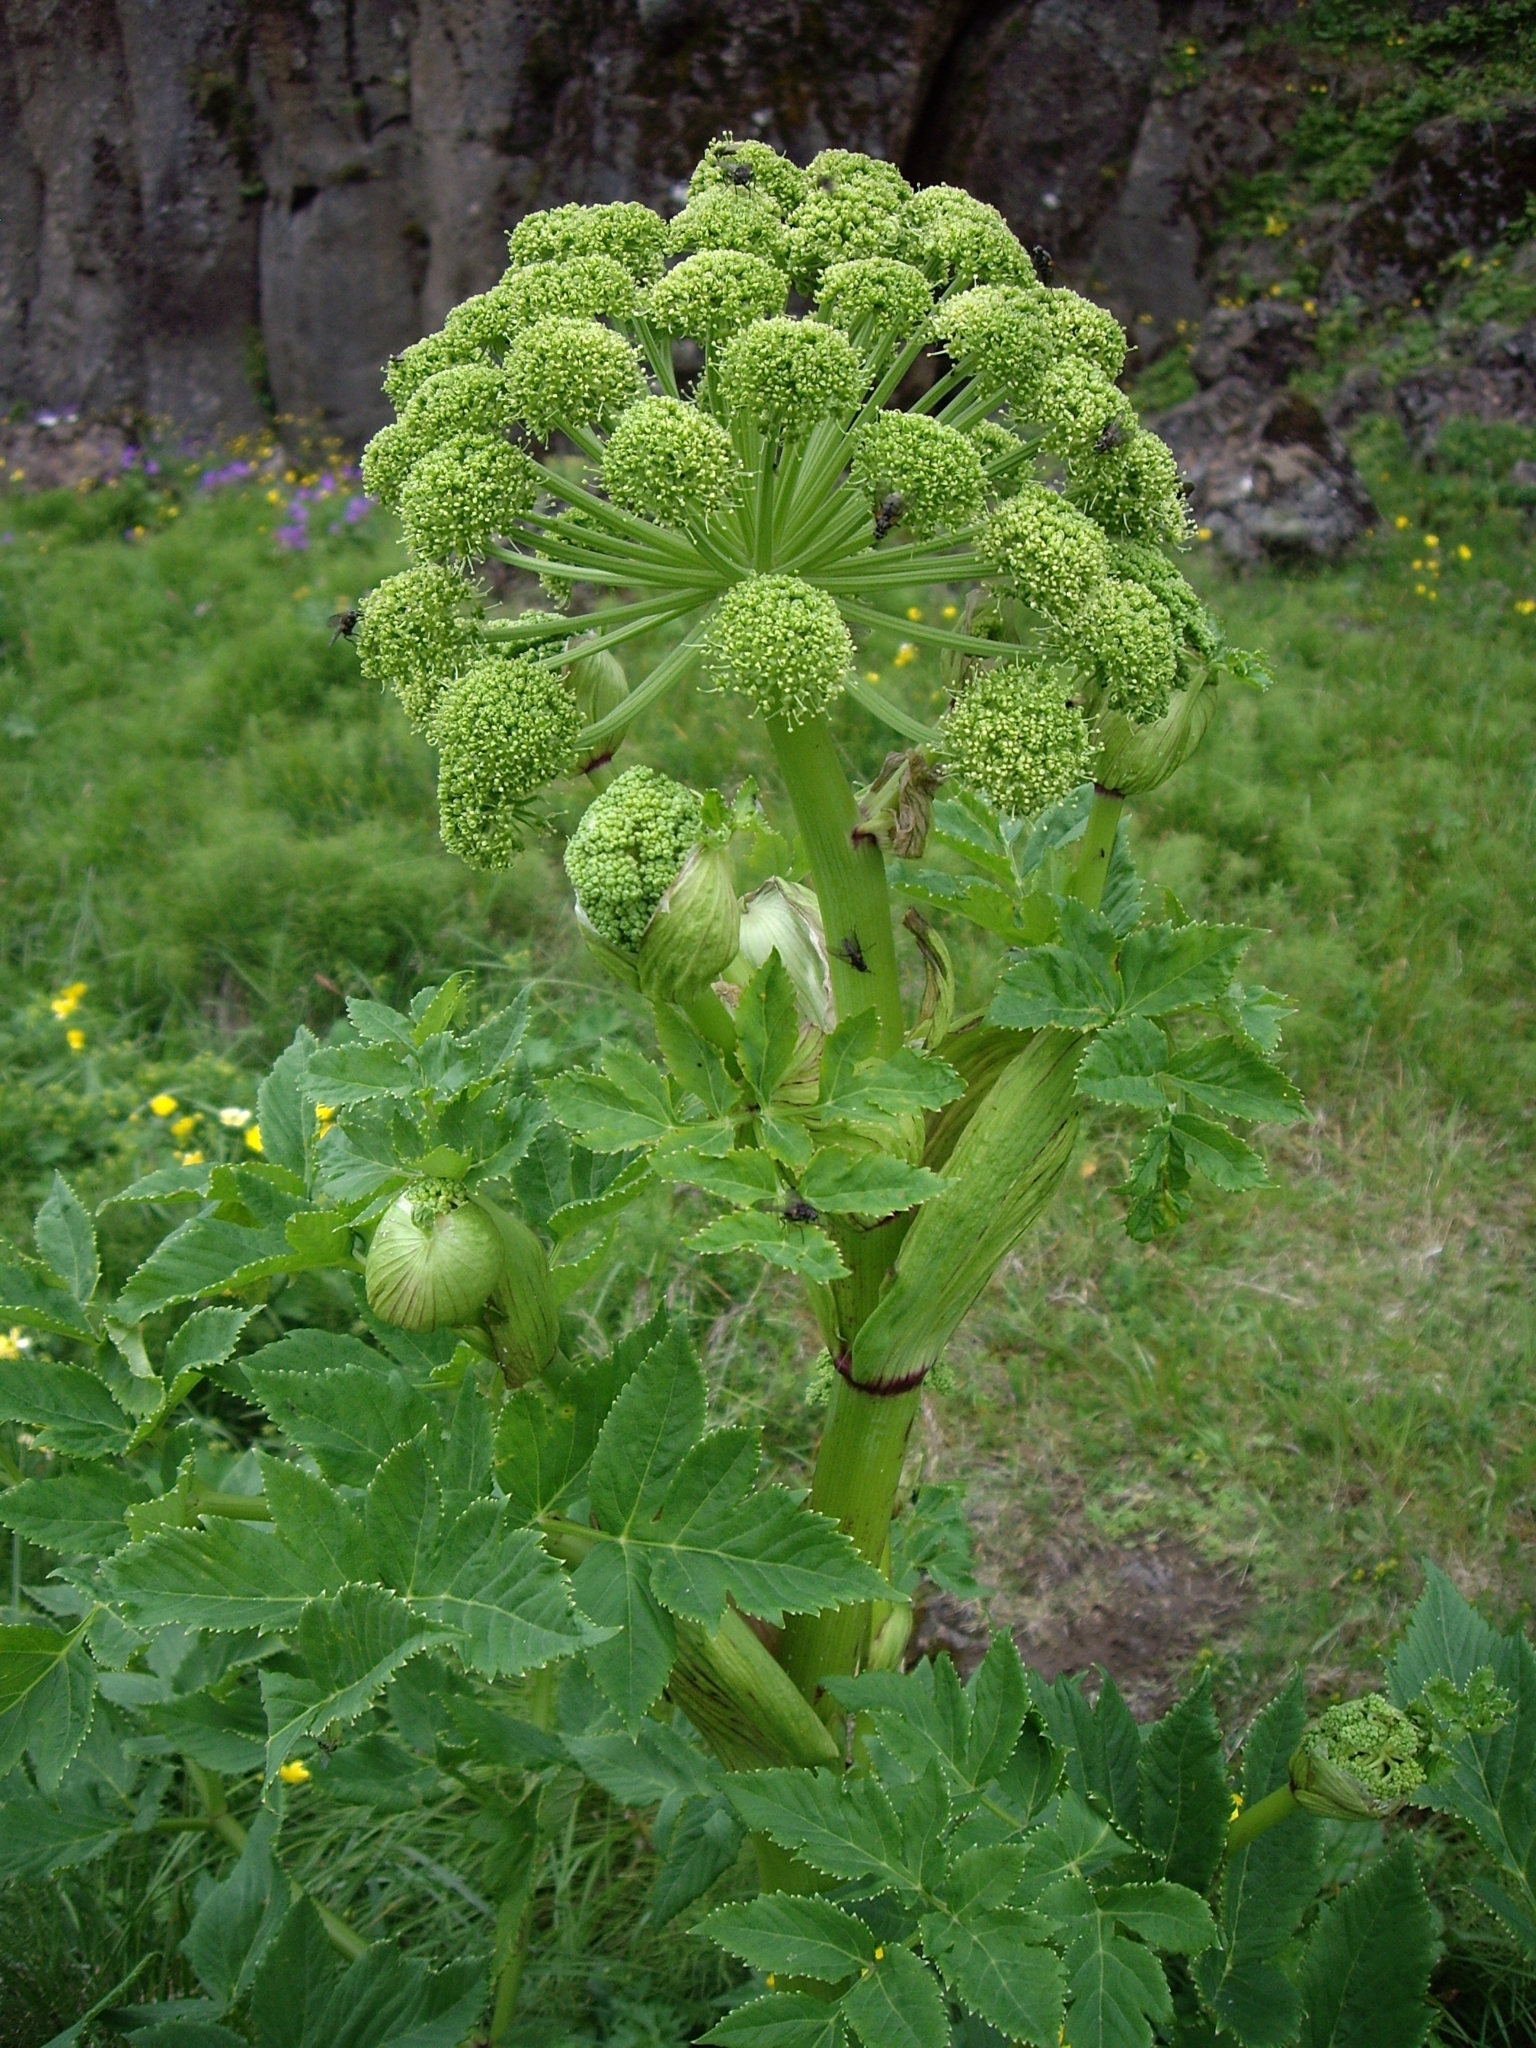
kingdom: Plantae
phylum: Tracheophyta
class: Magnoliopsida
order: Apiales
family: Apiaceae
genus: Angelica
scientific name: Angelica archangelica
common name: Garden angelica
